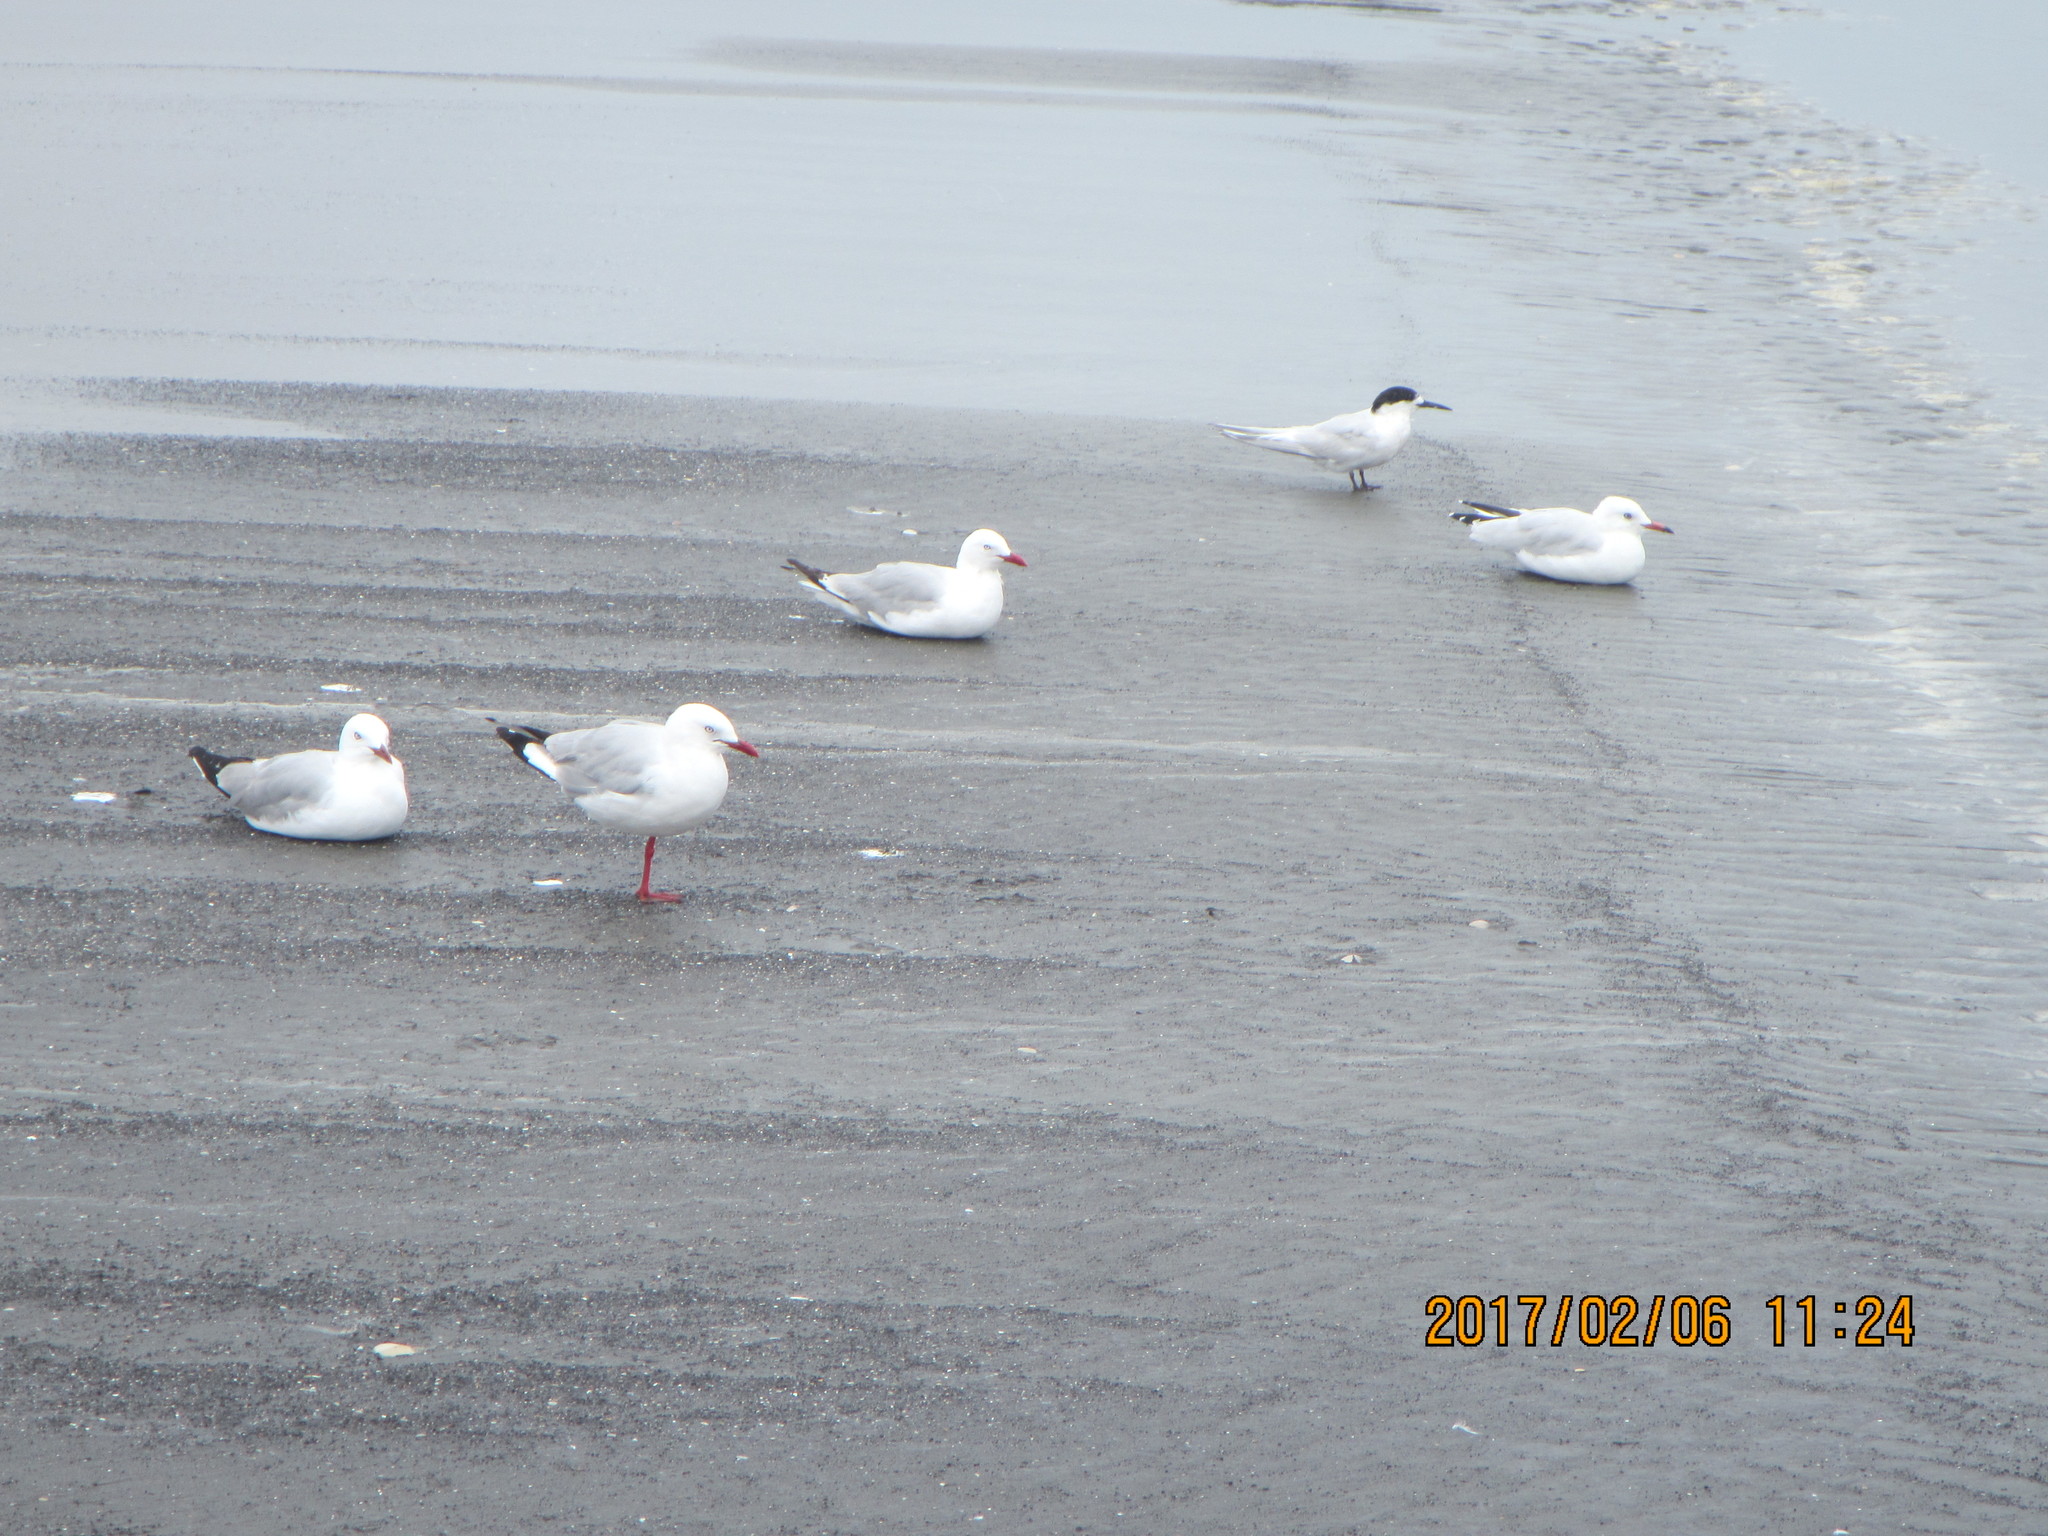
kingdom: Animalia
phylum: Chordata
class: Aves
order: Charadriiformes
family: Laridae
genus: Chroicocephalus
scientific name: Chroicocephalus novaehollandiae
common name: Silver gull
